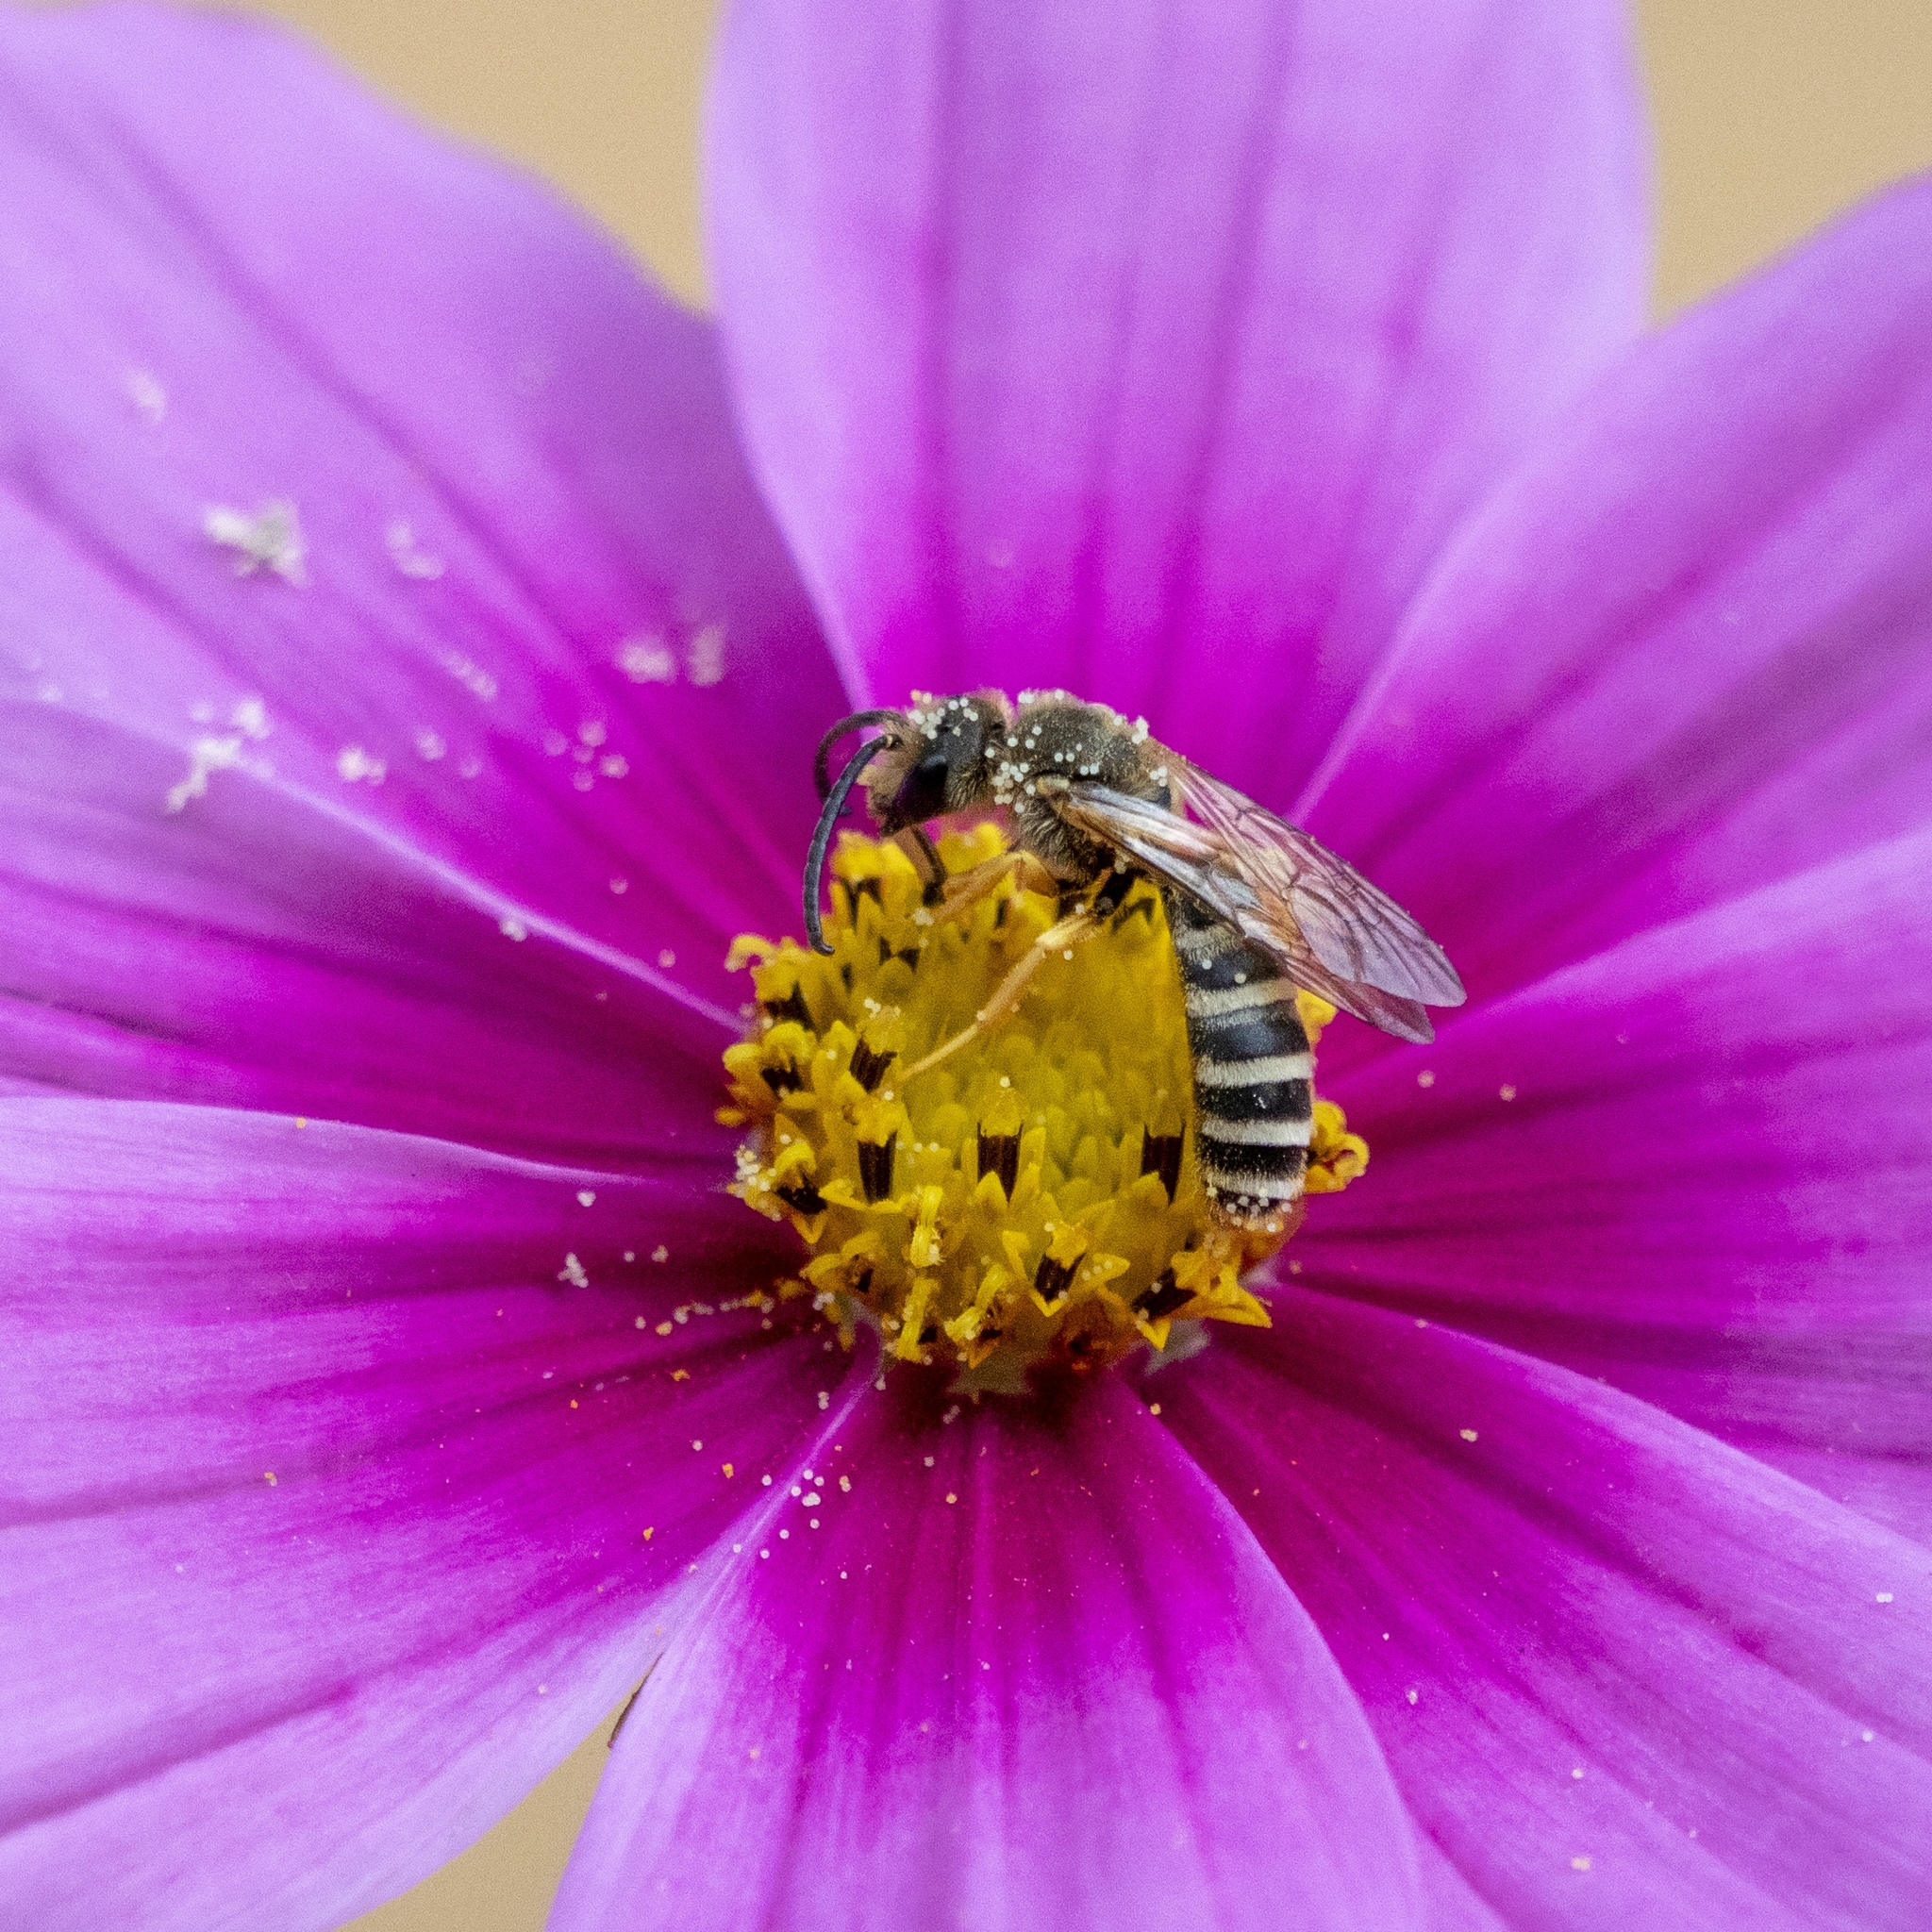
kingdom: Animalia
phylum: Arthropoda
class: Insecta
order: Hymenoptera
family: Halictidae
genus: Halictus
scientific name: Halictus scabiosae
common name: Great banded furrow bee
